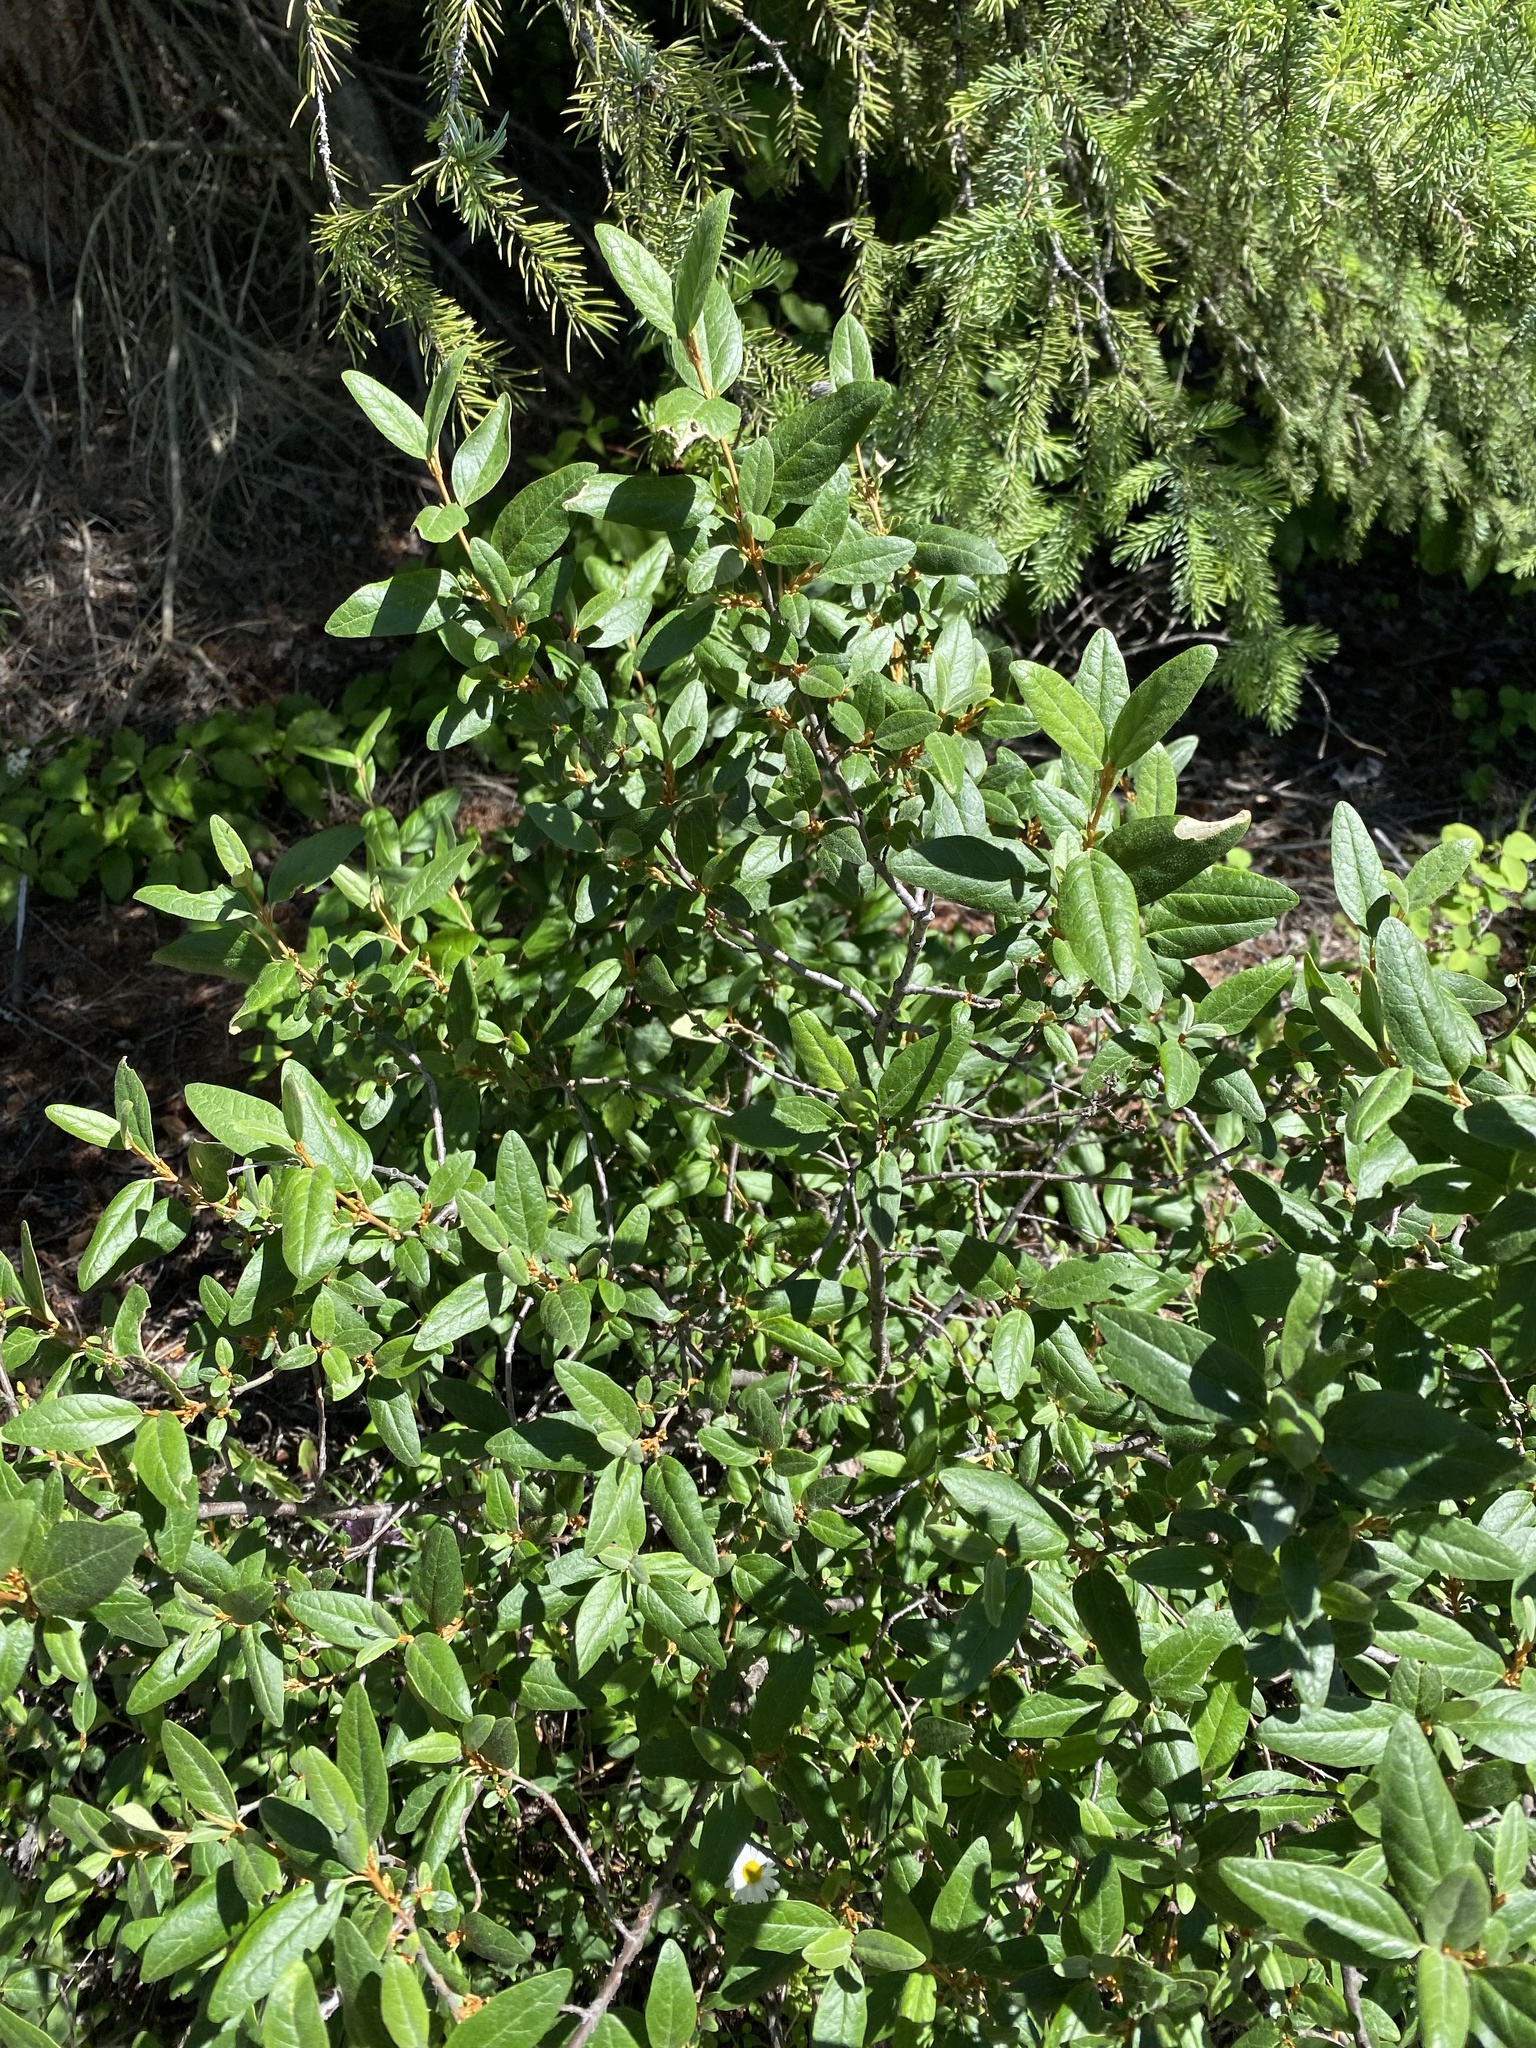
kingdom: Plantae
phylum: Tracheophyta
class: Magnoliopsida
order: Rosales
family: Elaeagnaceae
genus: Shepherdia
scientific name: Shepherdia canadensis
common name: Soapberry
